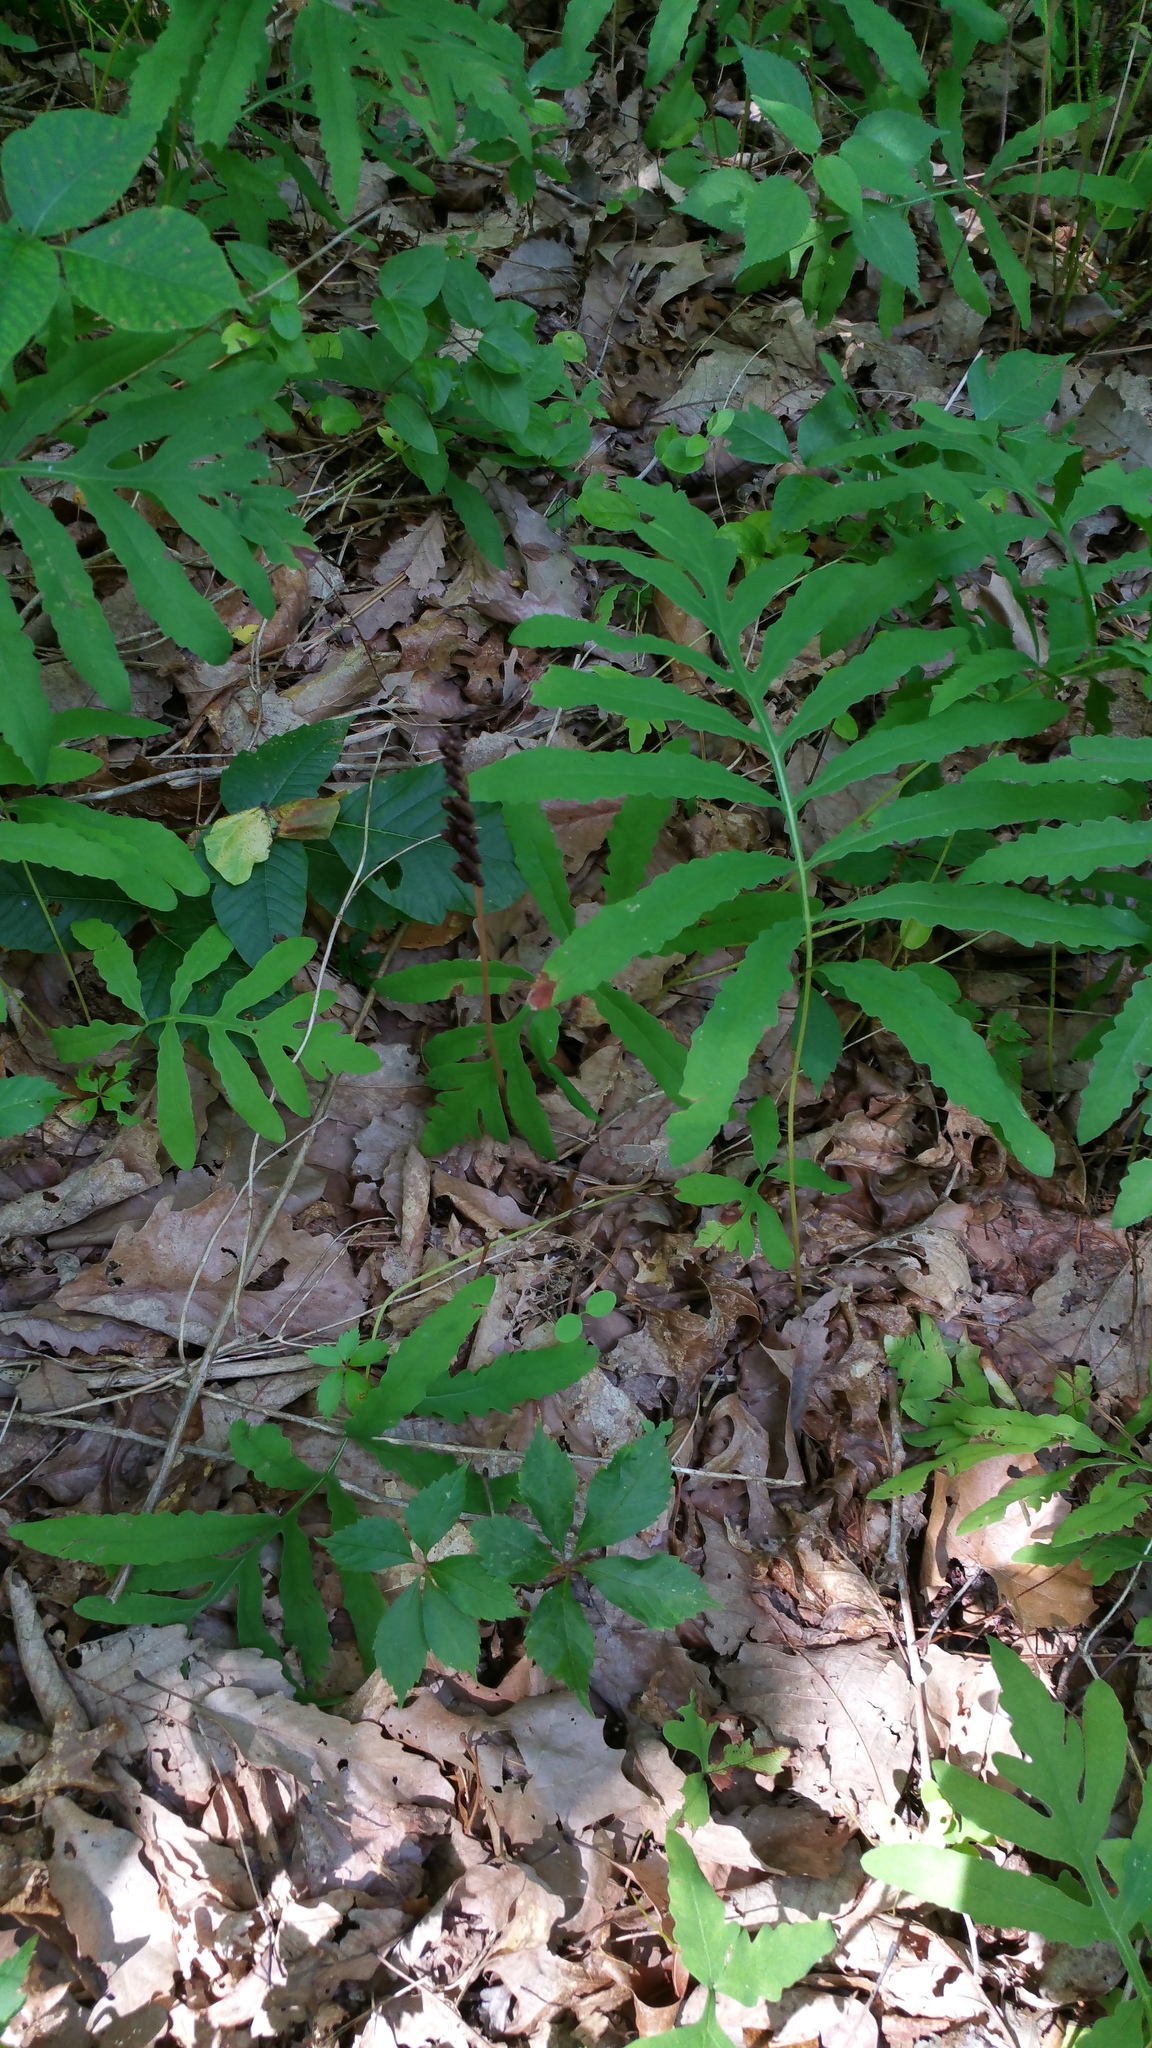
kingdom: Plantae
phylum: Tracheophyta
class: Polypodiopsida
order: Polypodiales
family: Onocleaceae
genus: Onoclea
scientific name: Onoclea sensibilis
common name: Sensitive fern
